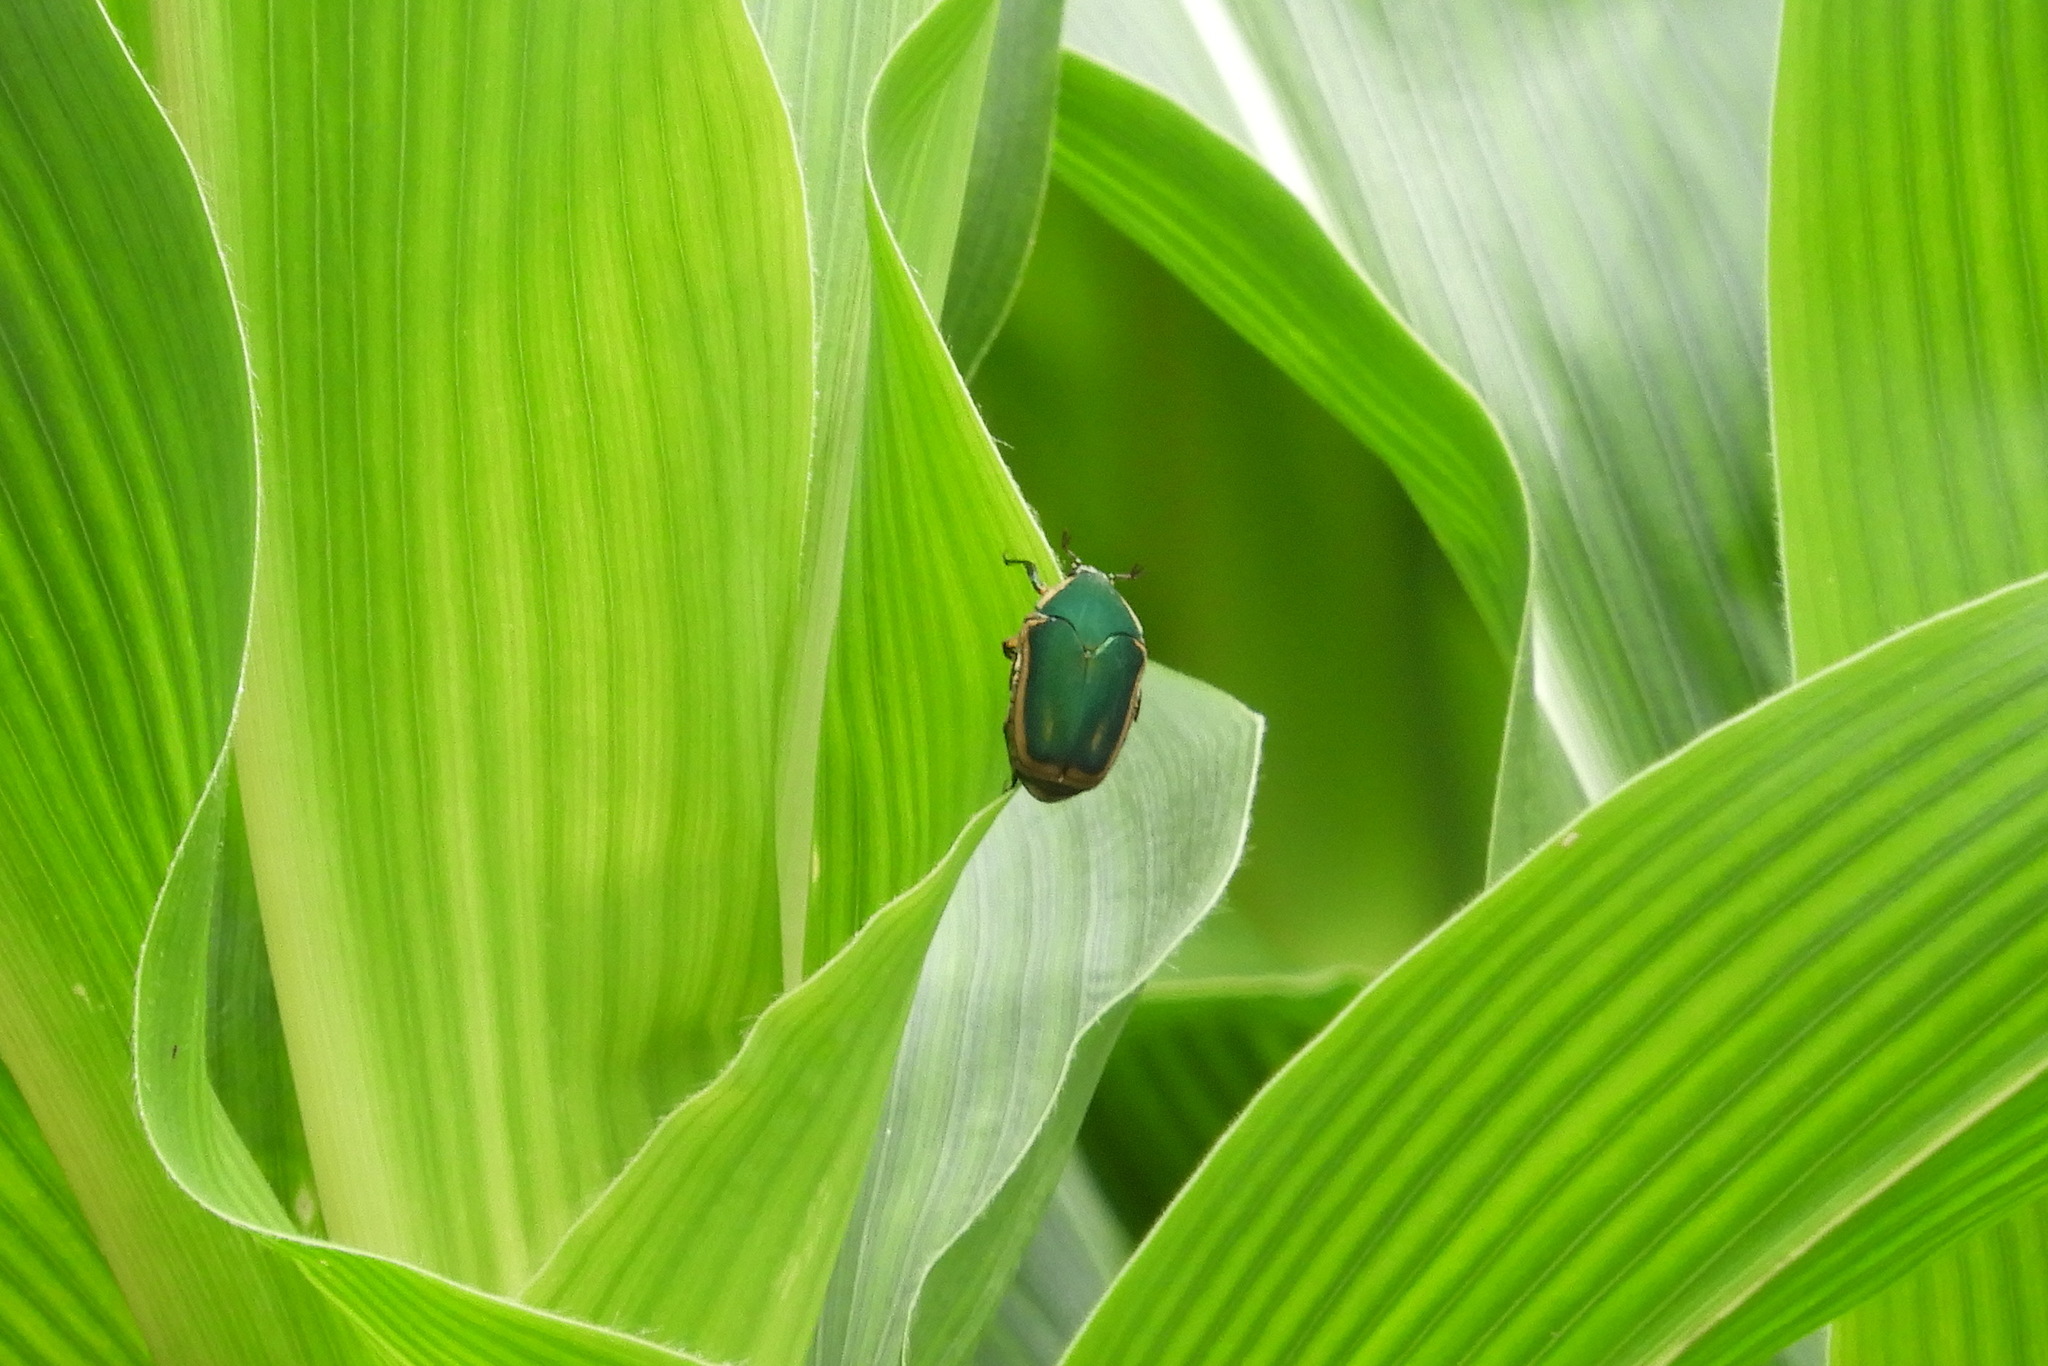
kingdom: Animalia
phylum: Arthropoda
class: Insecta
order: Coleoptera
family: Scarabaeidae
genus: Cotinis
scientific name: Cotinis nitida
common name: Common green june beetle
